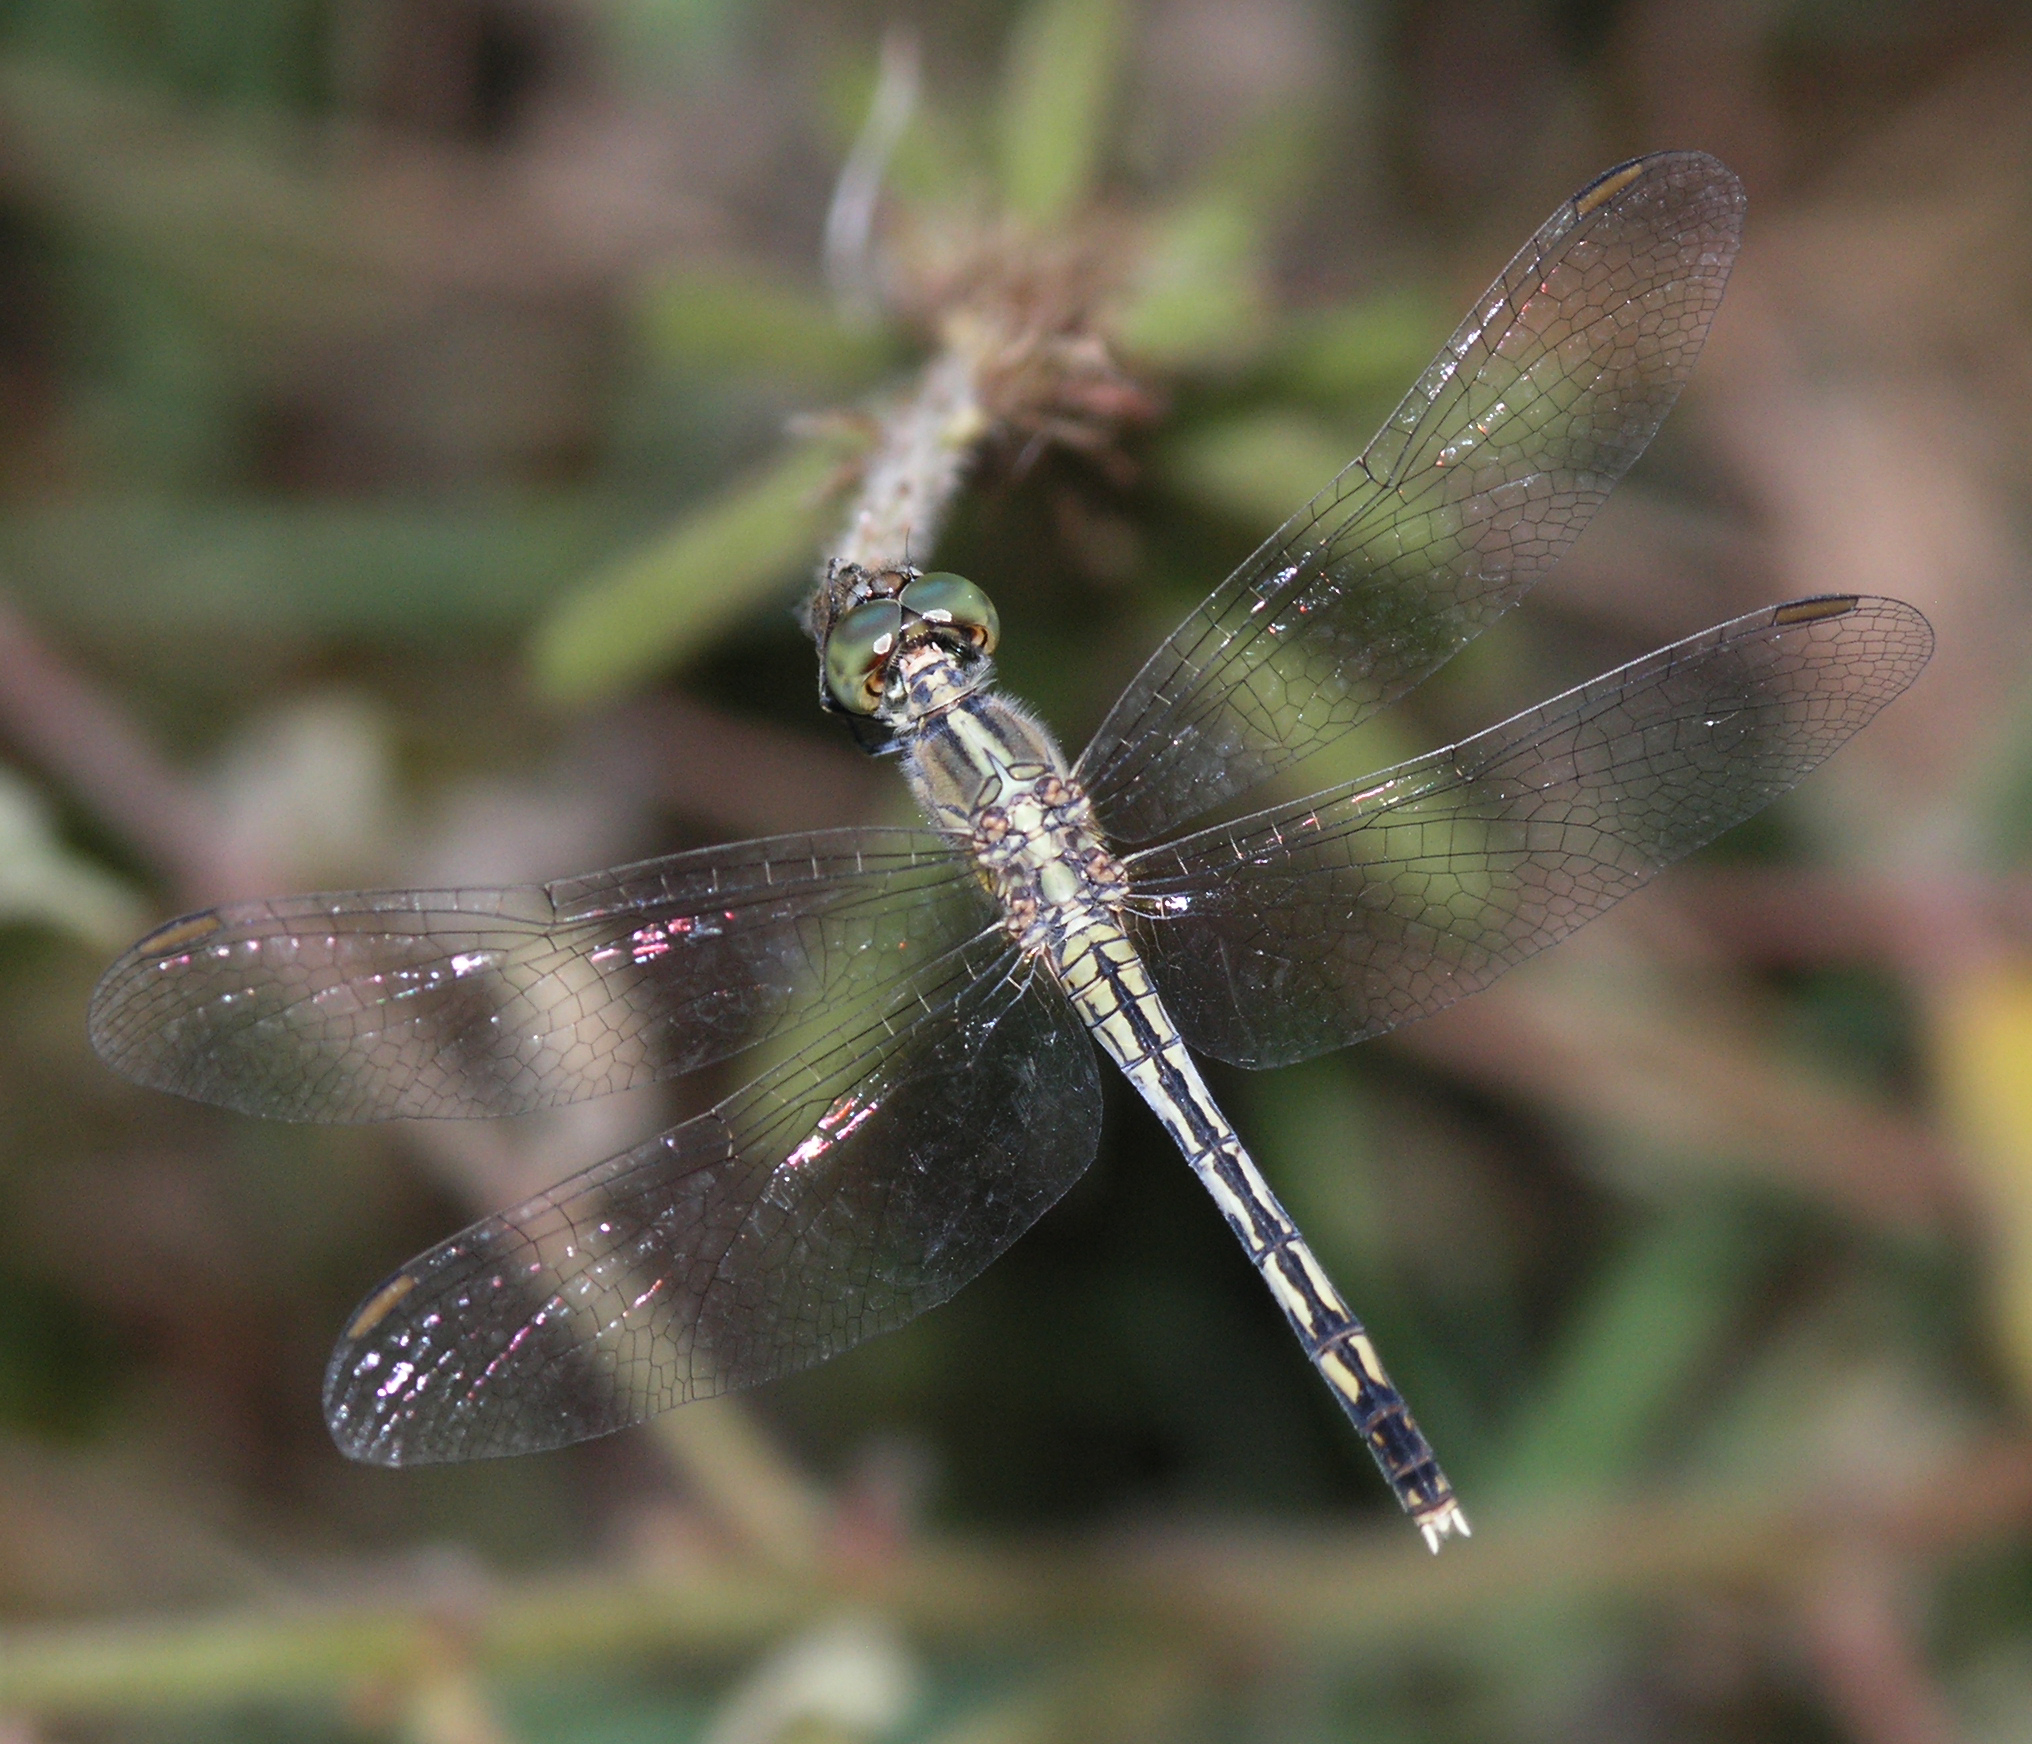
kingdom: Animalia
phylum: Arthropoda
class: Insecta
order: Odonata
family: Libellulidae
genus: Diplacodes
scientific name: Diplacodes trivialis
